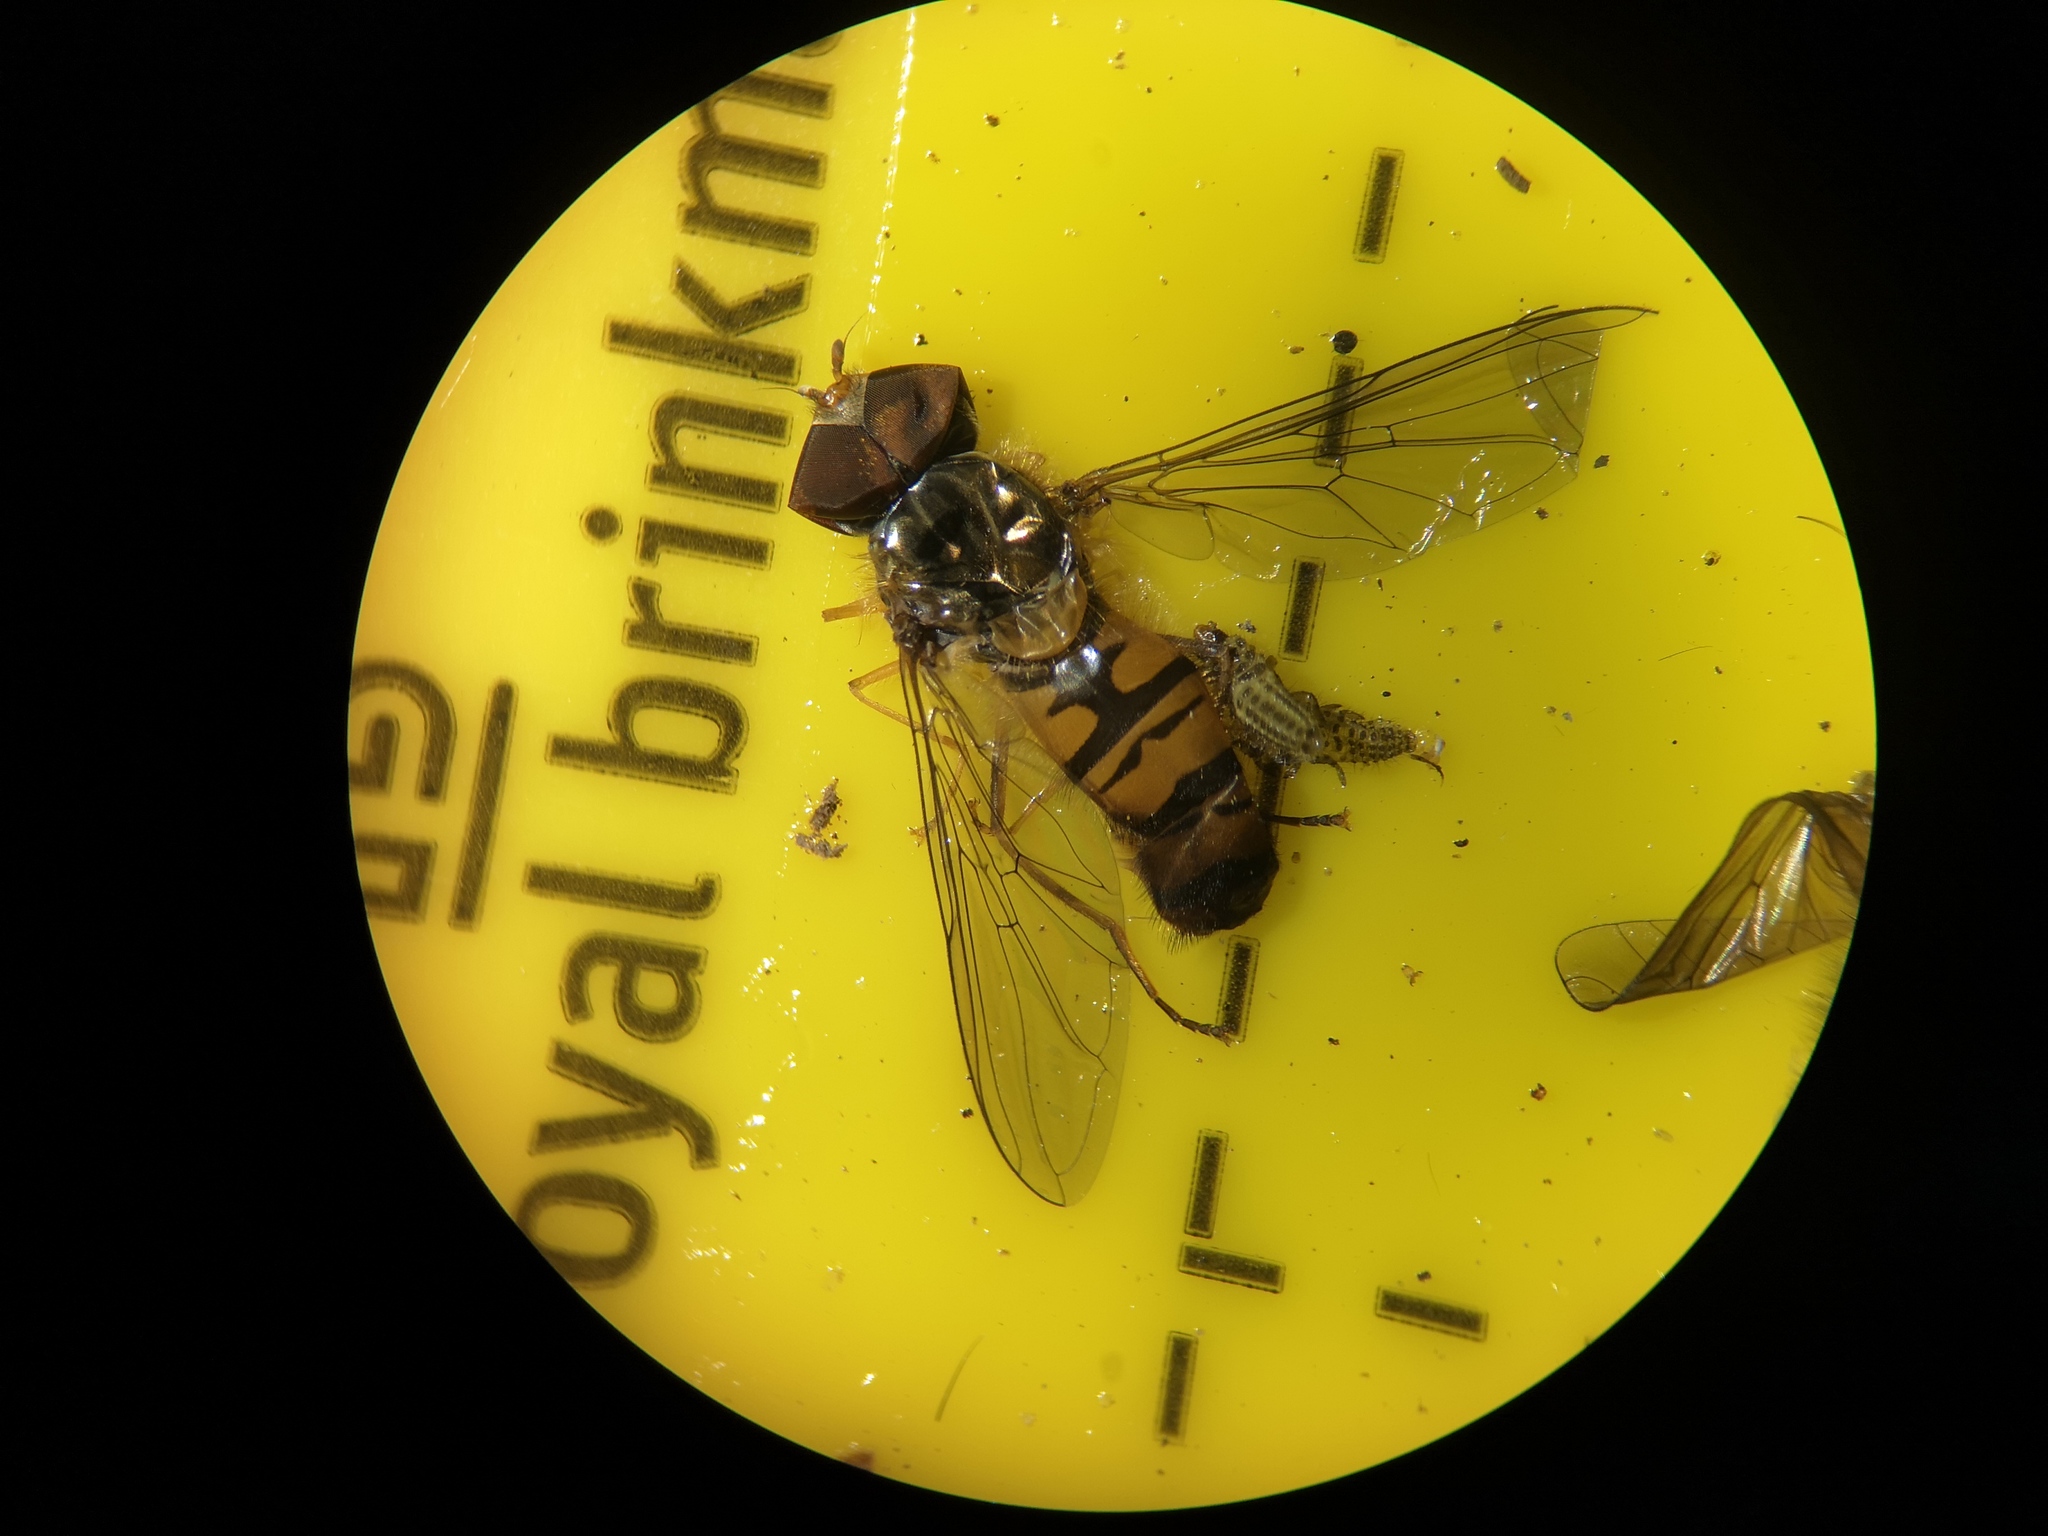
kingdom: Animalia
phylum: Arthropoda
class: Insecta
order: Diptera
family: Syrphidae
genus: Episyrphus
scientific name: Episyrphus balteatus
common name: Marmalade hoverfly
